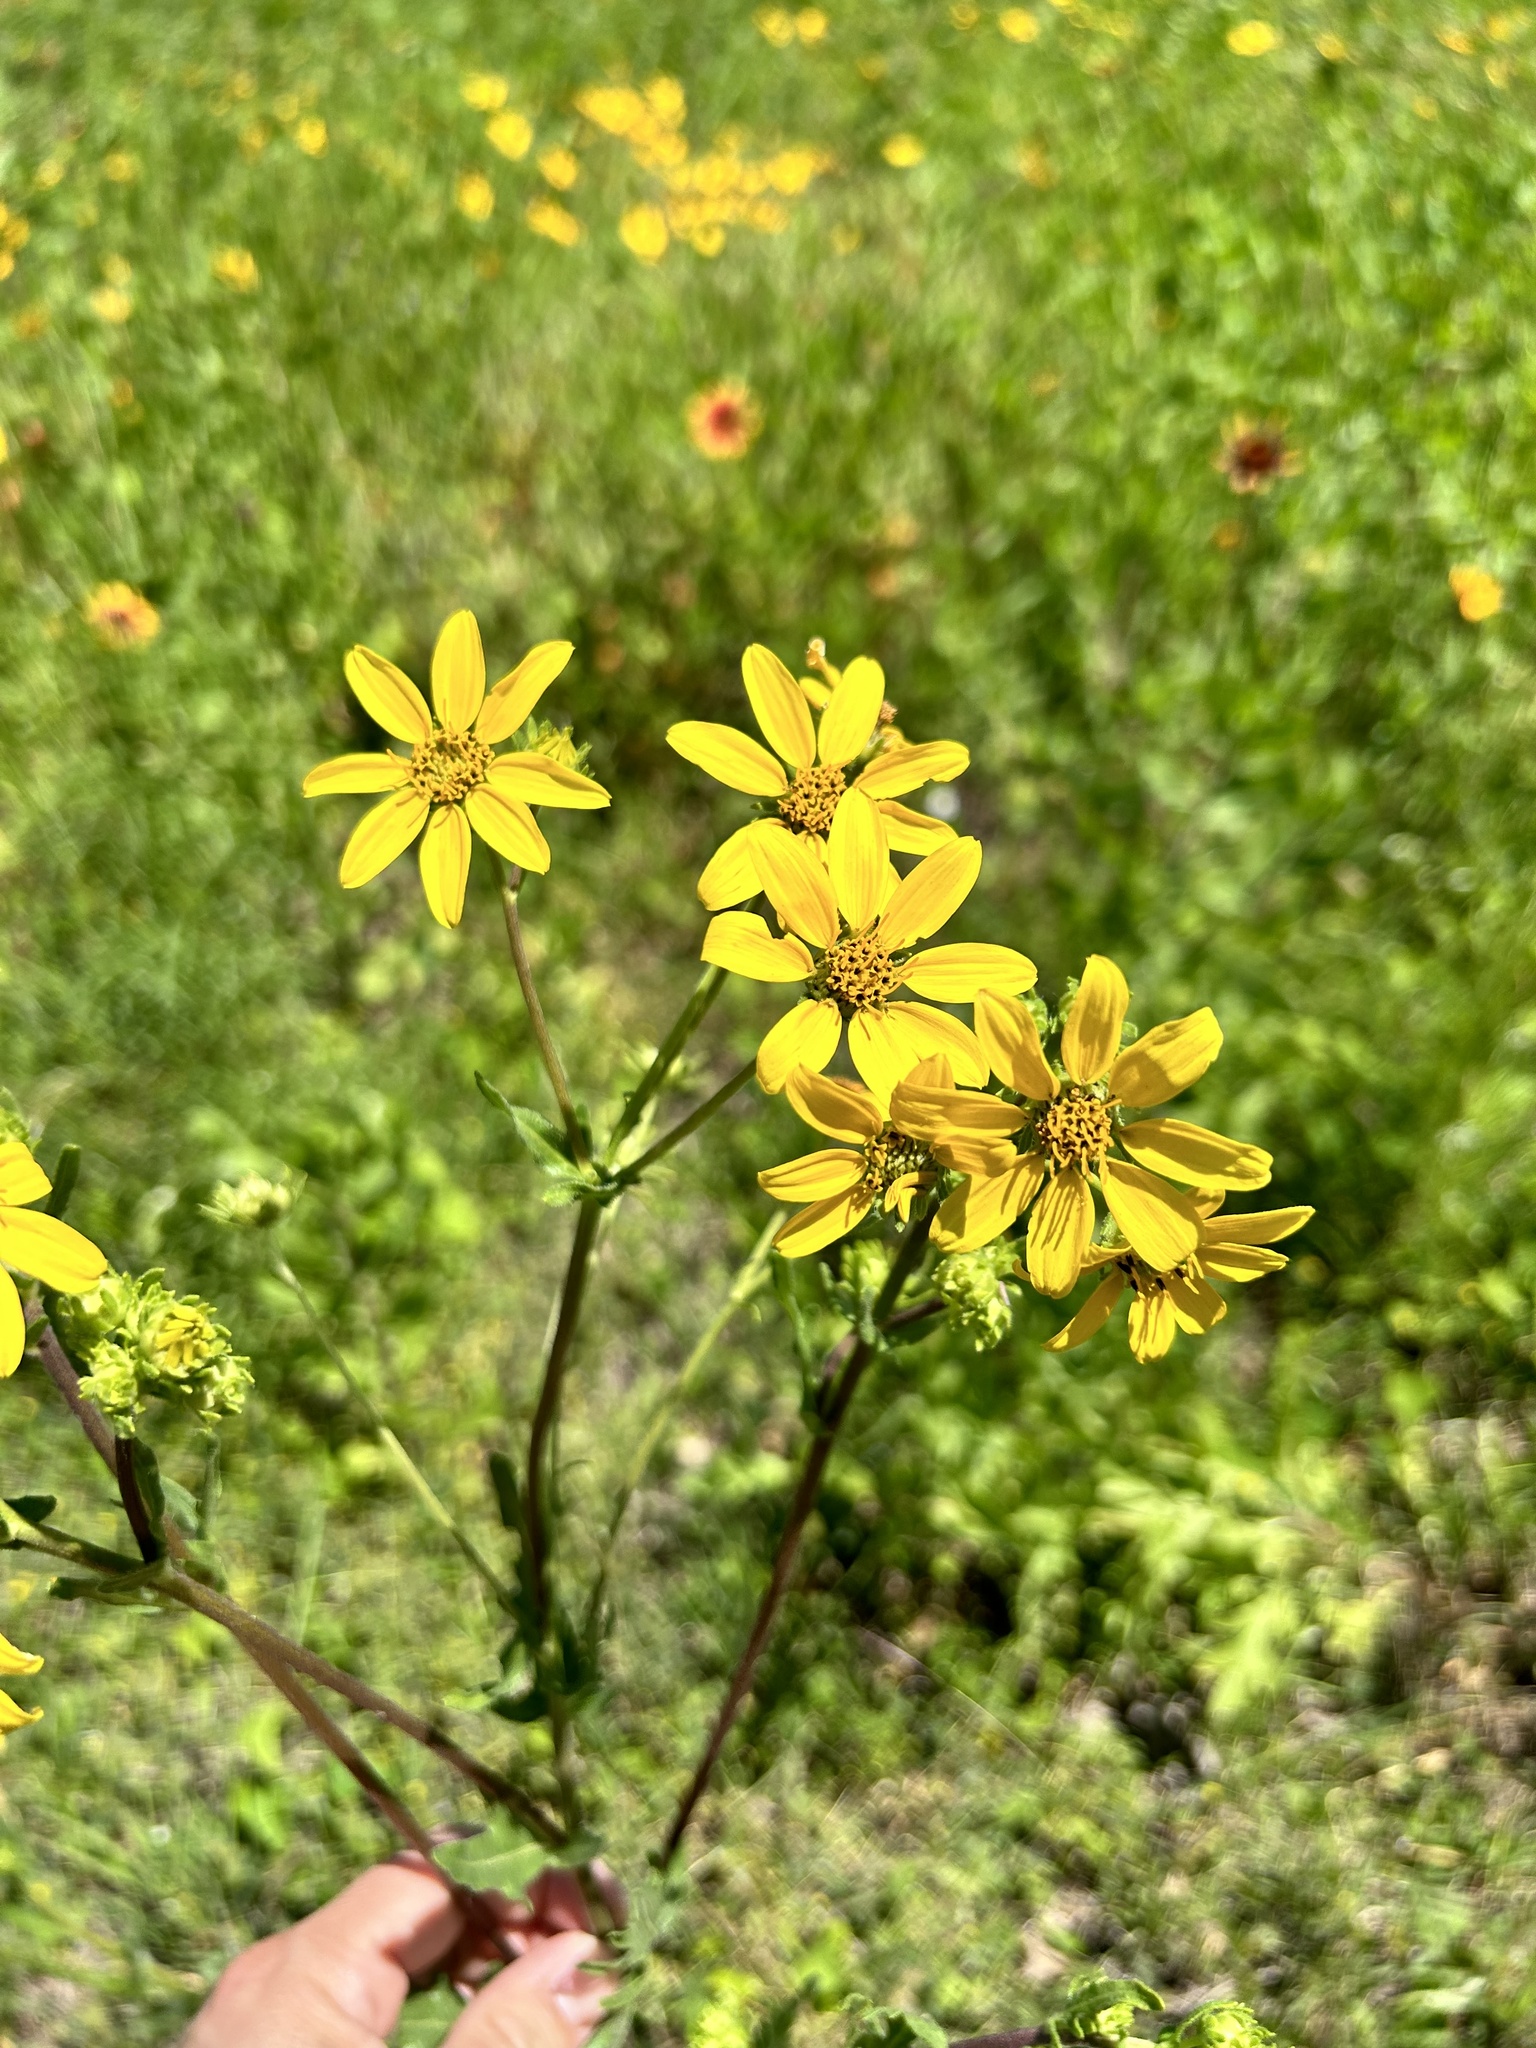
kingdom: Plantae
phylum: Tracheophyta
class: Magnoliopsida
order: Asterales
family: Asteraceae
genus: Engelmannia
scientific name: Engelmannia peristenia
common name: Engelmann's daisy
